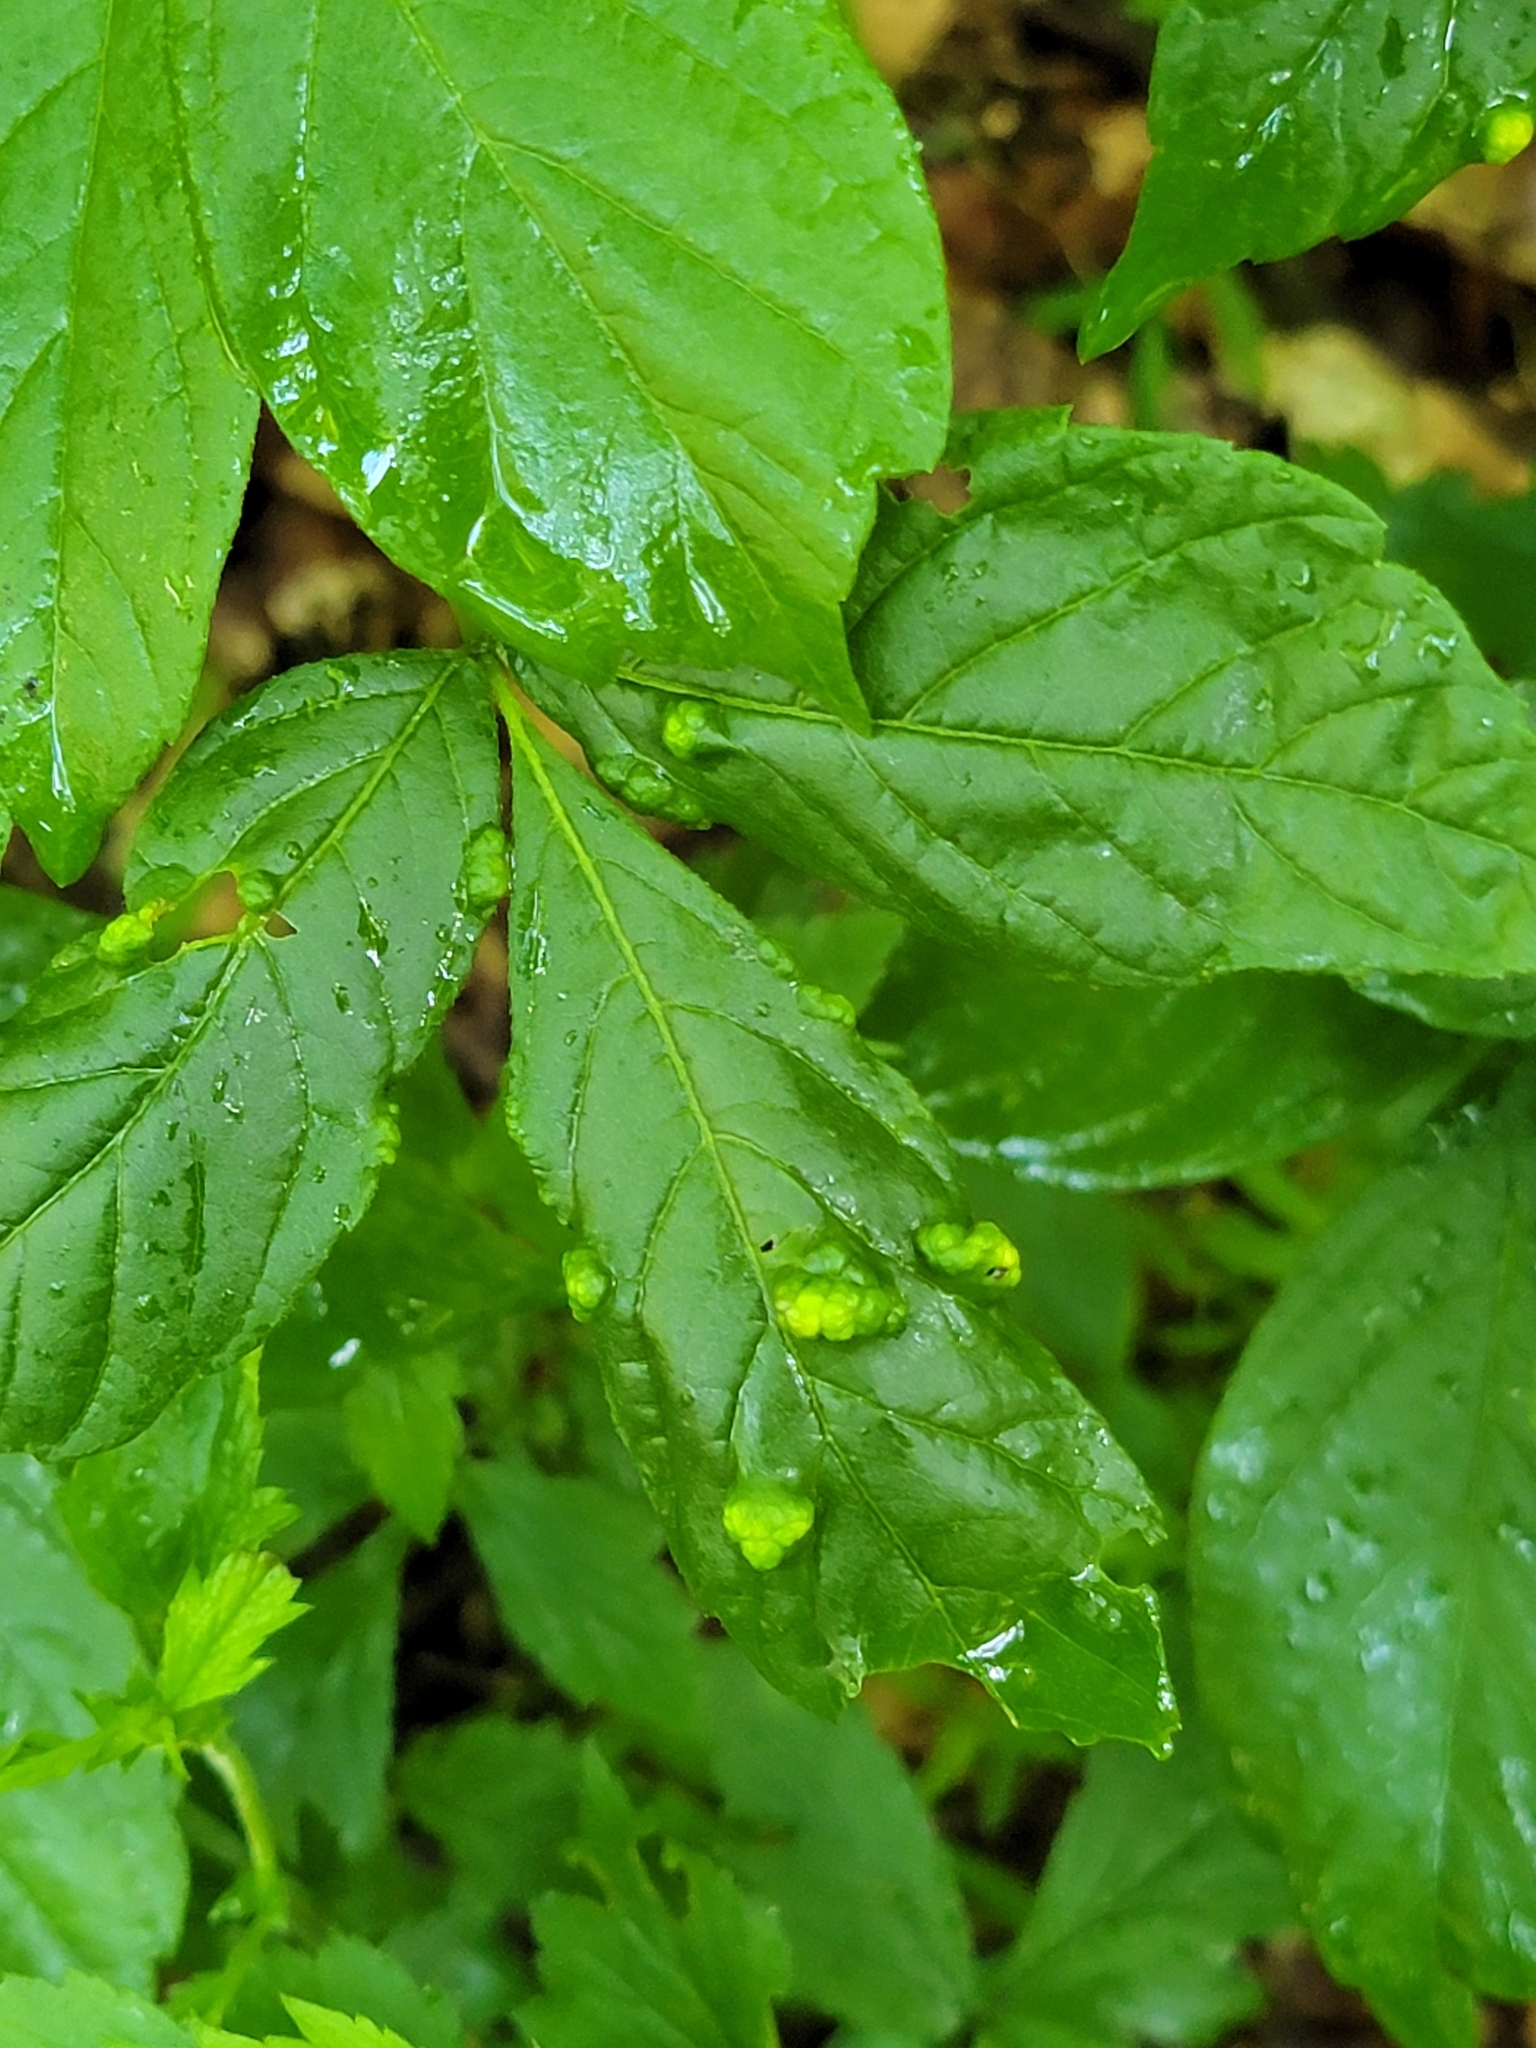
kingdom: Animalia
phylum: Arthropoda
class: Arachnida
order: Trombidiformes
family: Eriophyidae
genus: Aceria
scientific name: Aceria
